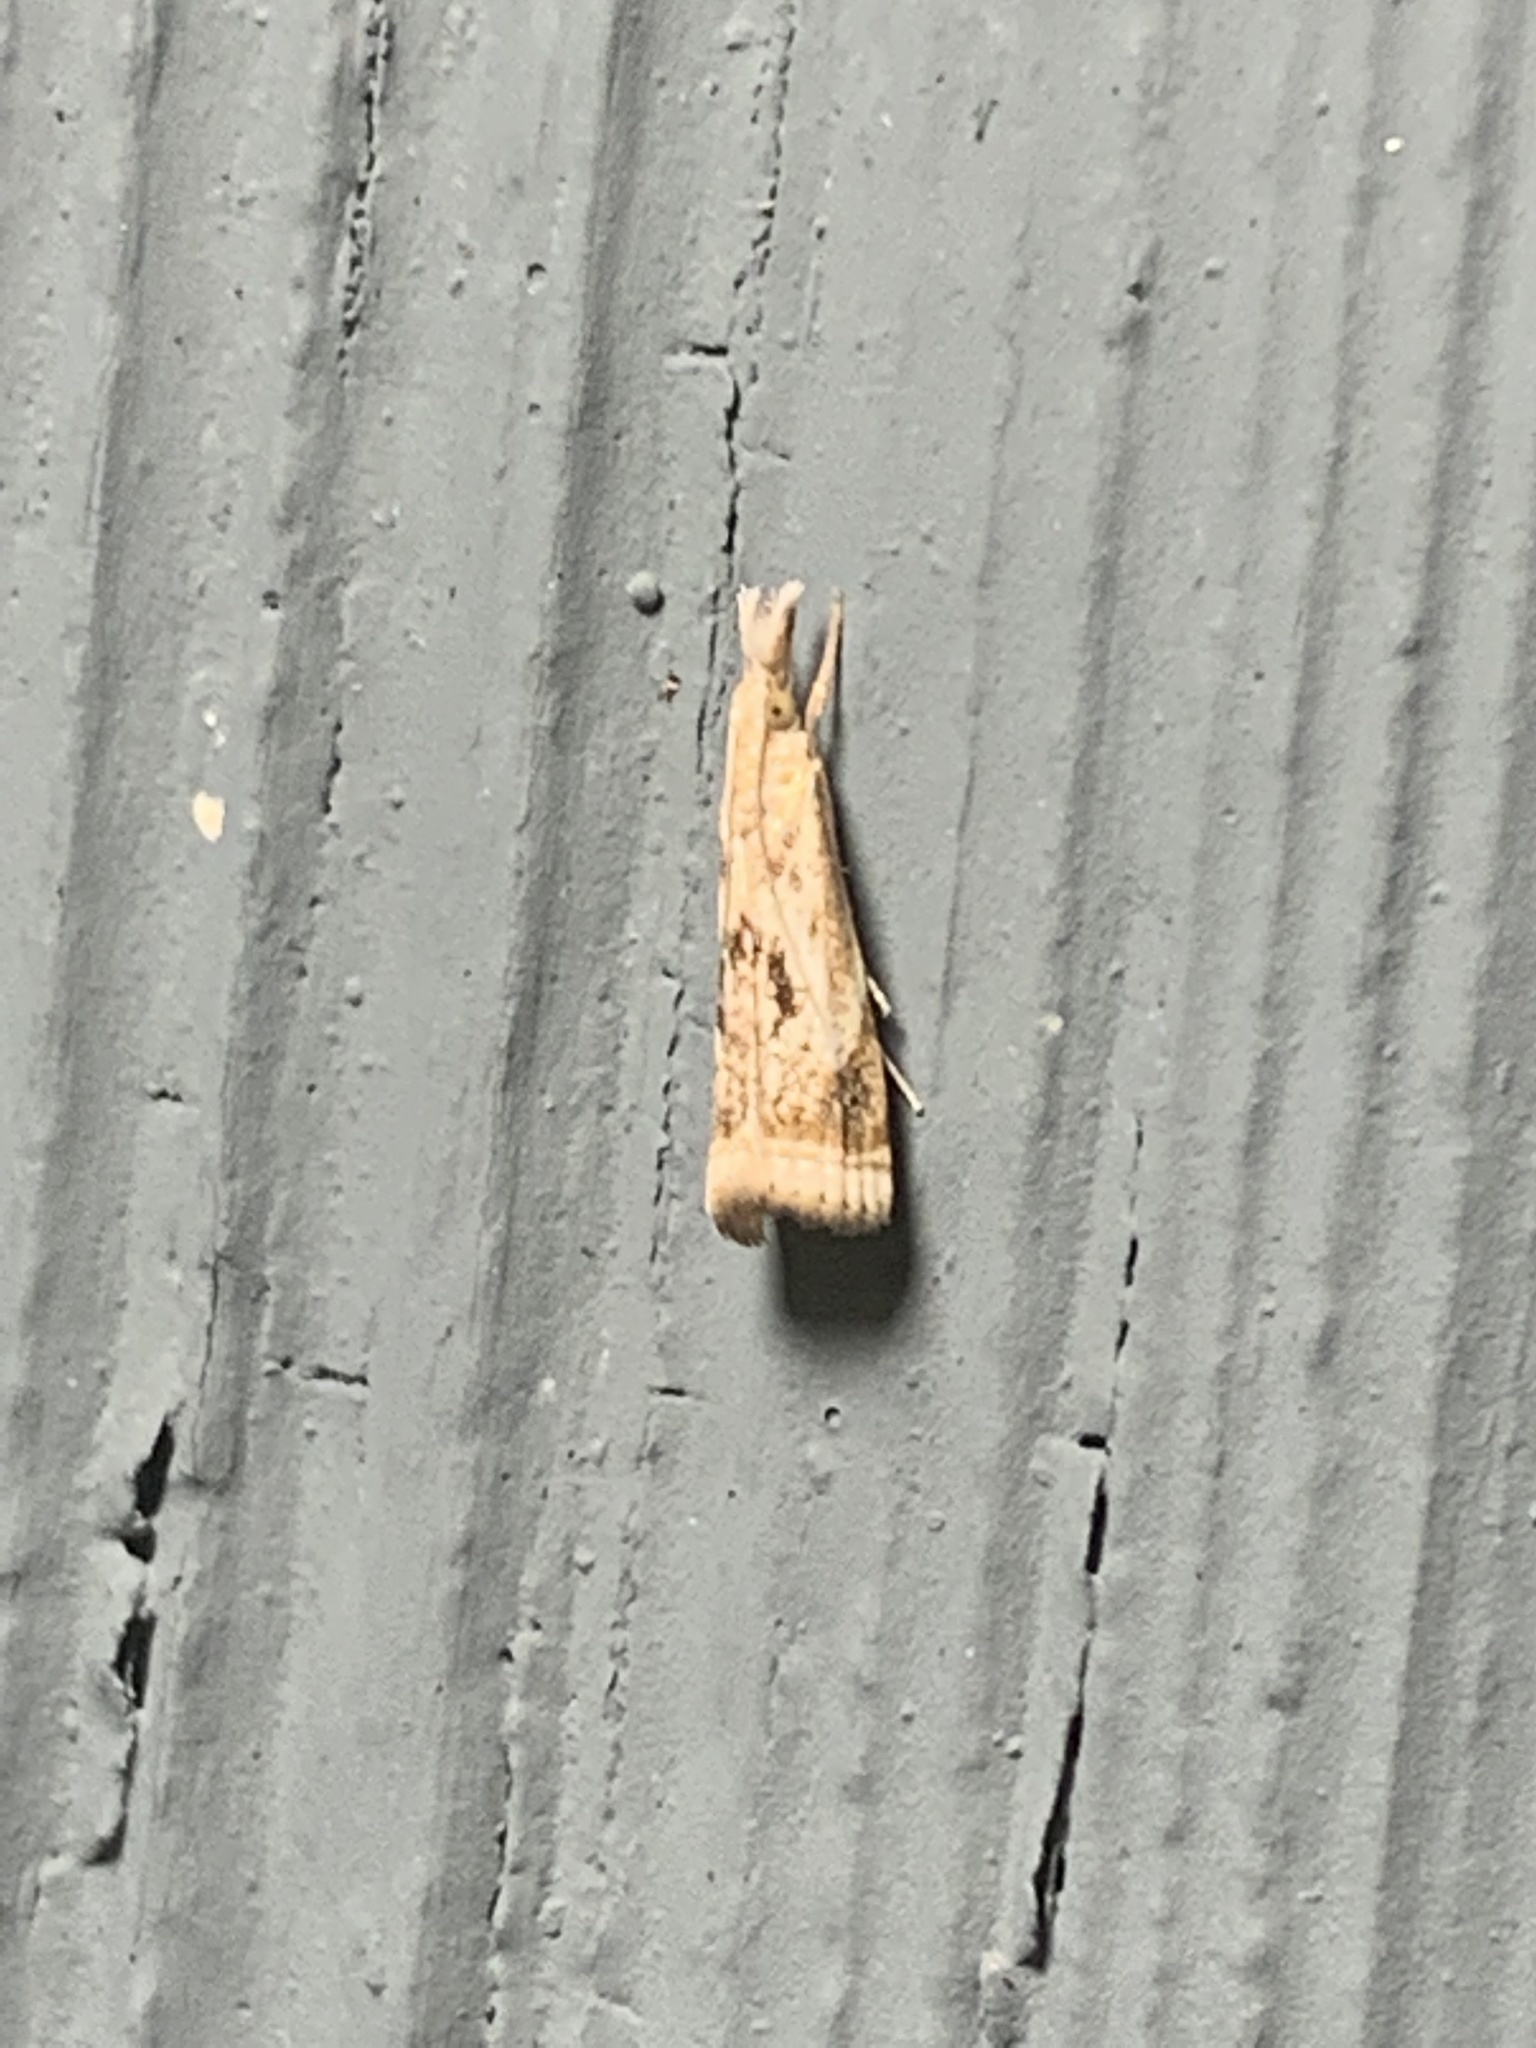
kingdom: Animalia
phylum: Arthropoda
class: Insecta
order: Lepidoptera
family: Crambidae
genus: Microcrambus
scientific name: Microcrambus elegans
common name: Elegant grass-veneer
